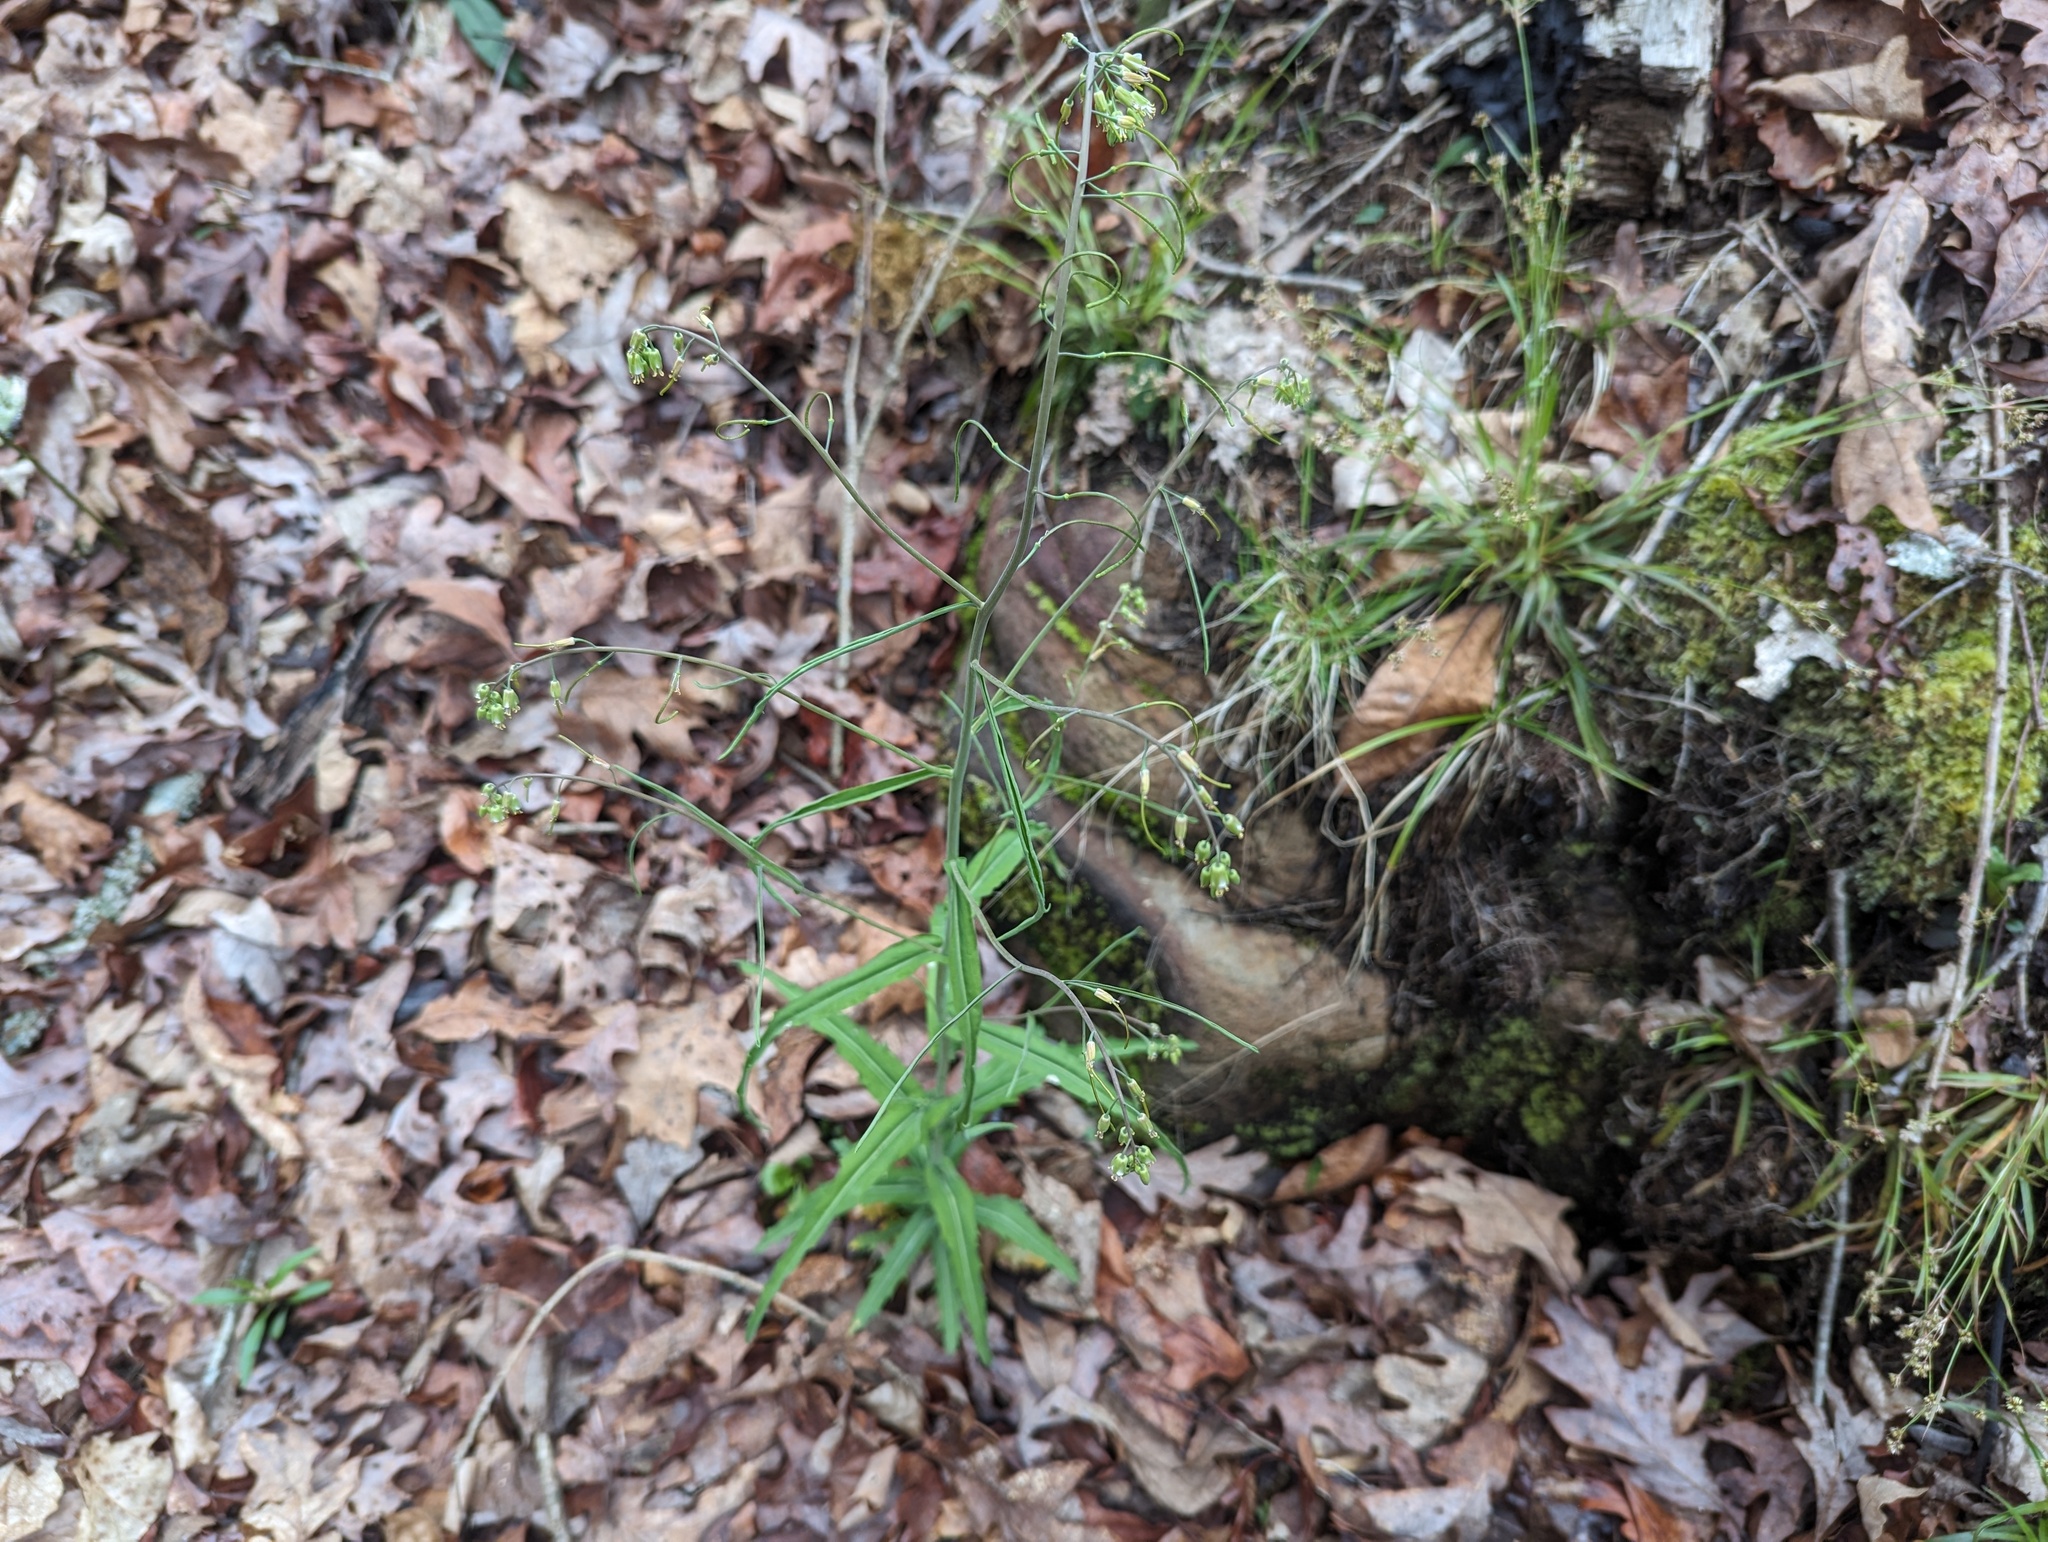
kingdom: Plantae
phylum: Tracheophyta
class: Magnoliopsida
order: Brassicales
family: Brassicaceae
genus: Borodinia
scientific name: Borodinia laevigata
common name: Smooth rockcress
